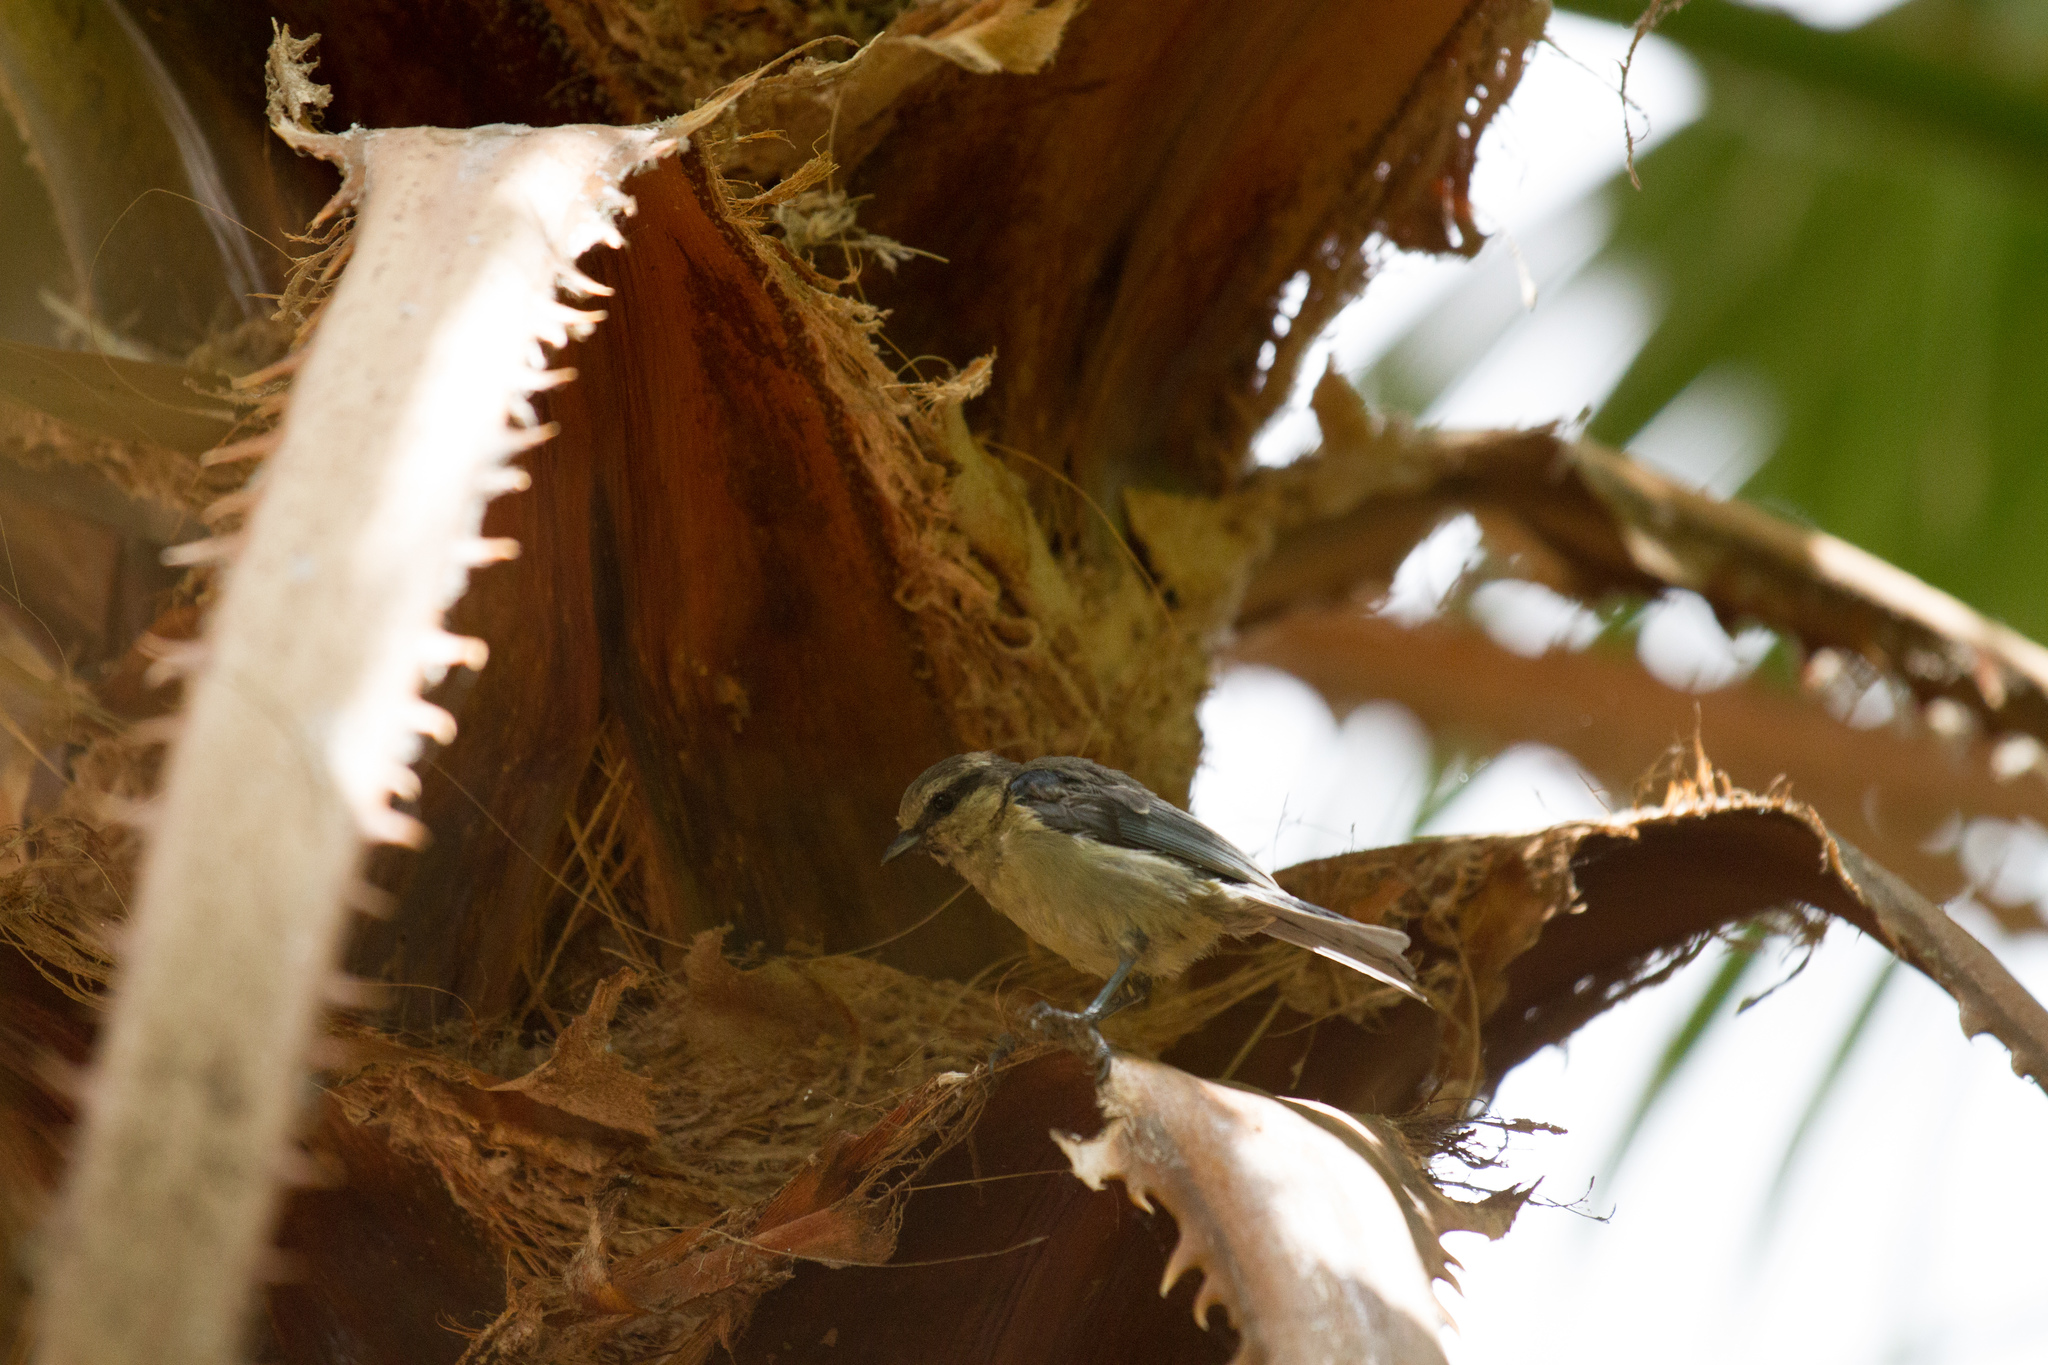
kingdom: Animalia
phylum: Chordata
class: Aves
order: Passeriformes
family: Paridae
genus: Cyanistes
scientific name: Cyanistes teneriffae
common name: African blue tit
